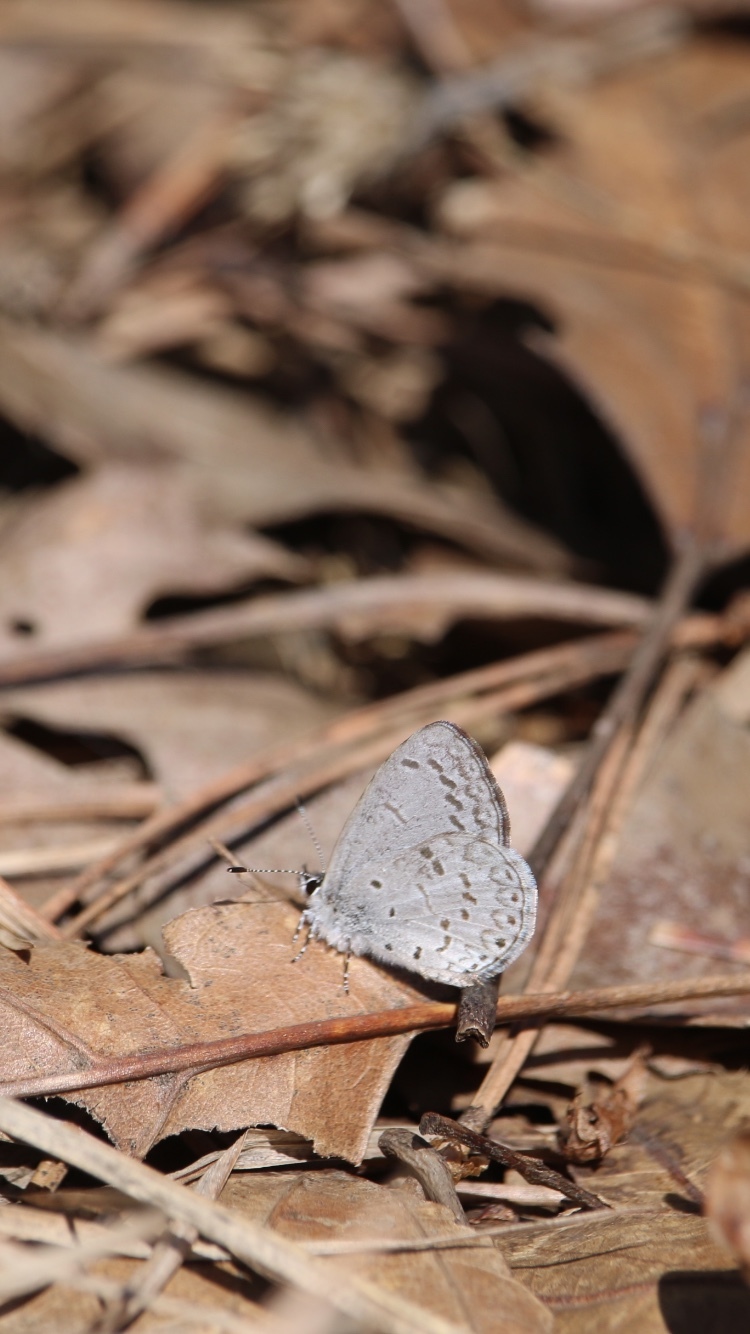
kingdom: Animalia
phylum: Arthropoda
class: Insecta
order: Lepidoptera
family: Lycaenidae
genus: Celastrina
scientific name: Celastrina lucia
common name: Lucia azure
